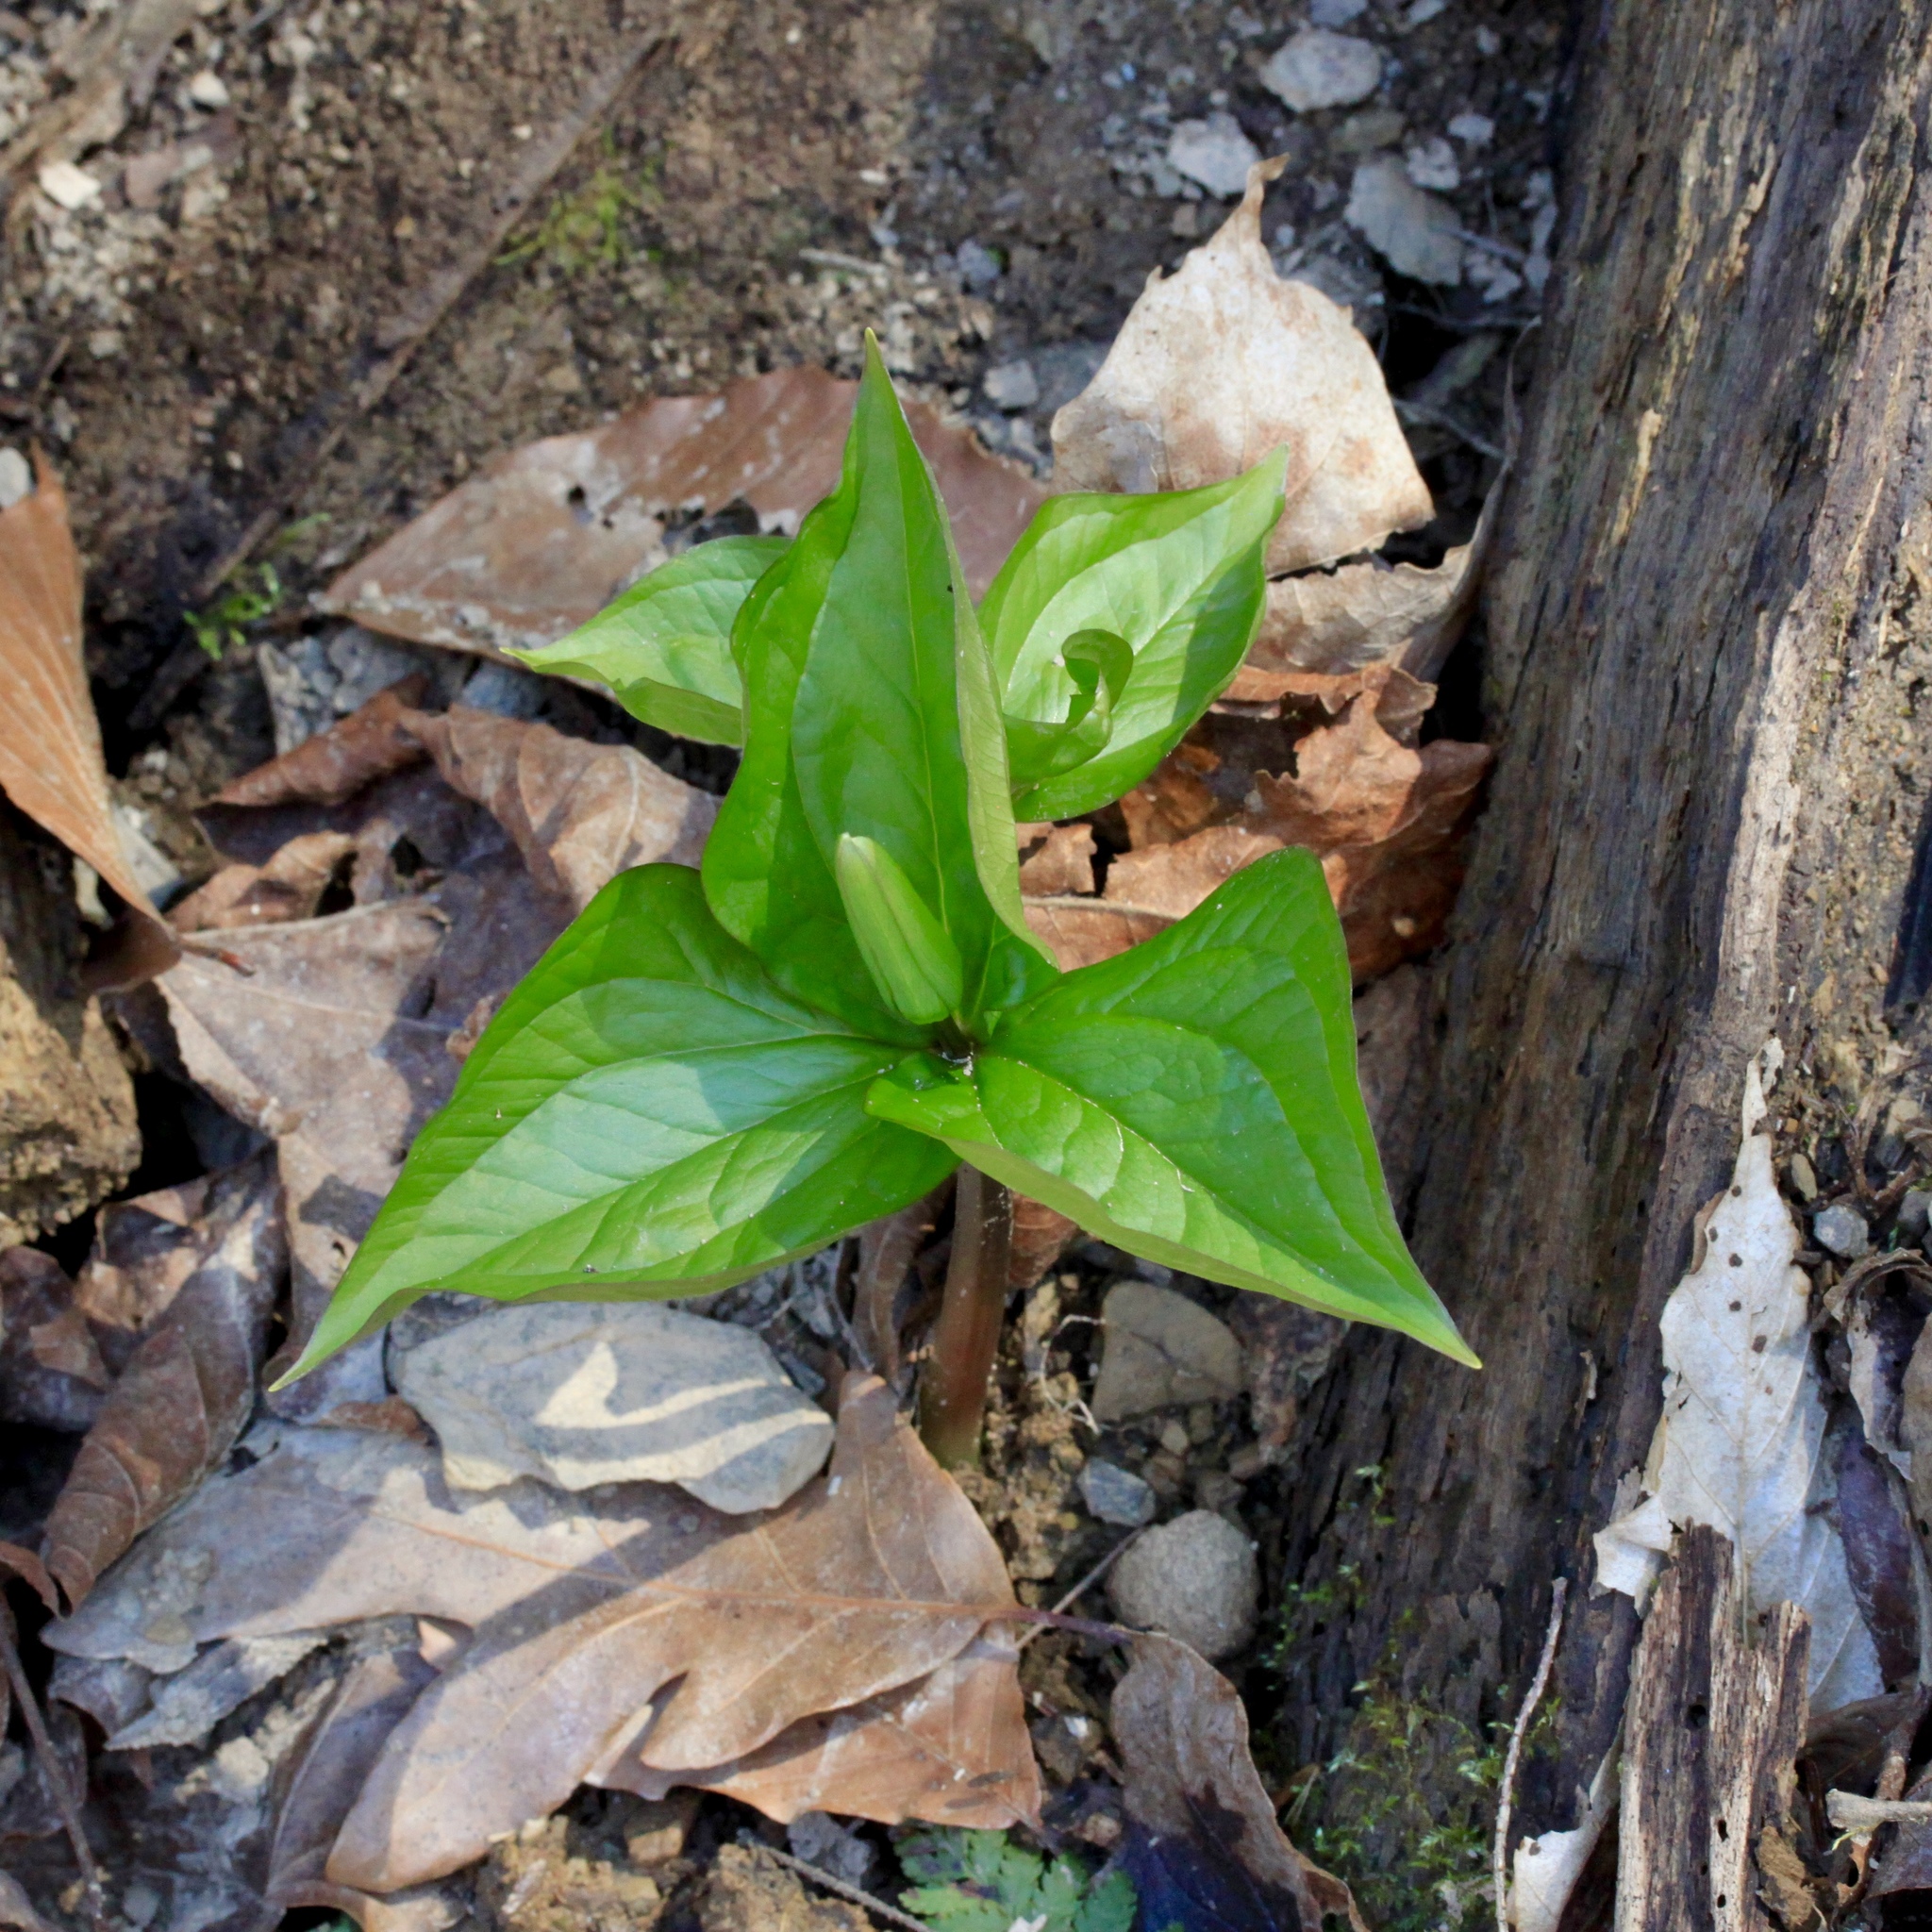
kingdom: Plantae
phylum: Tracheophyta
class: Liliopsida
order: Liliales
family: Melanthiaceae
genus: Trillium
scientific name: Trillium grandiflorum
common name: Great white trillium
